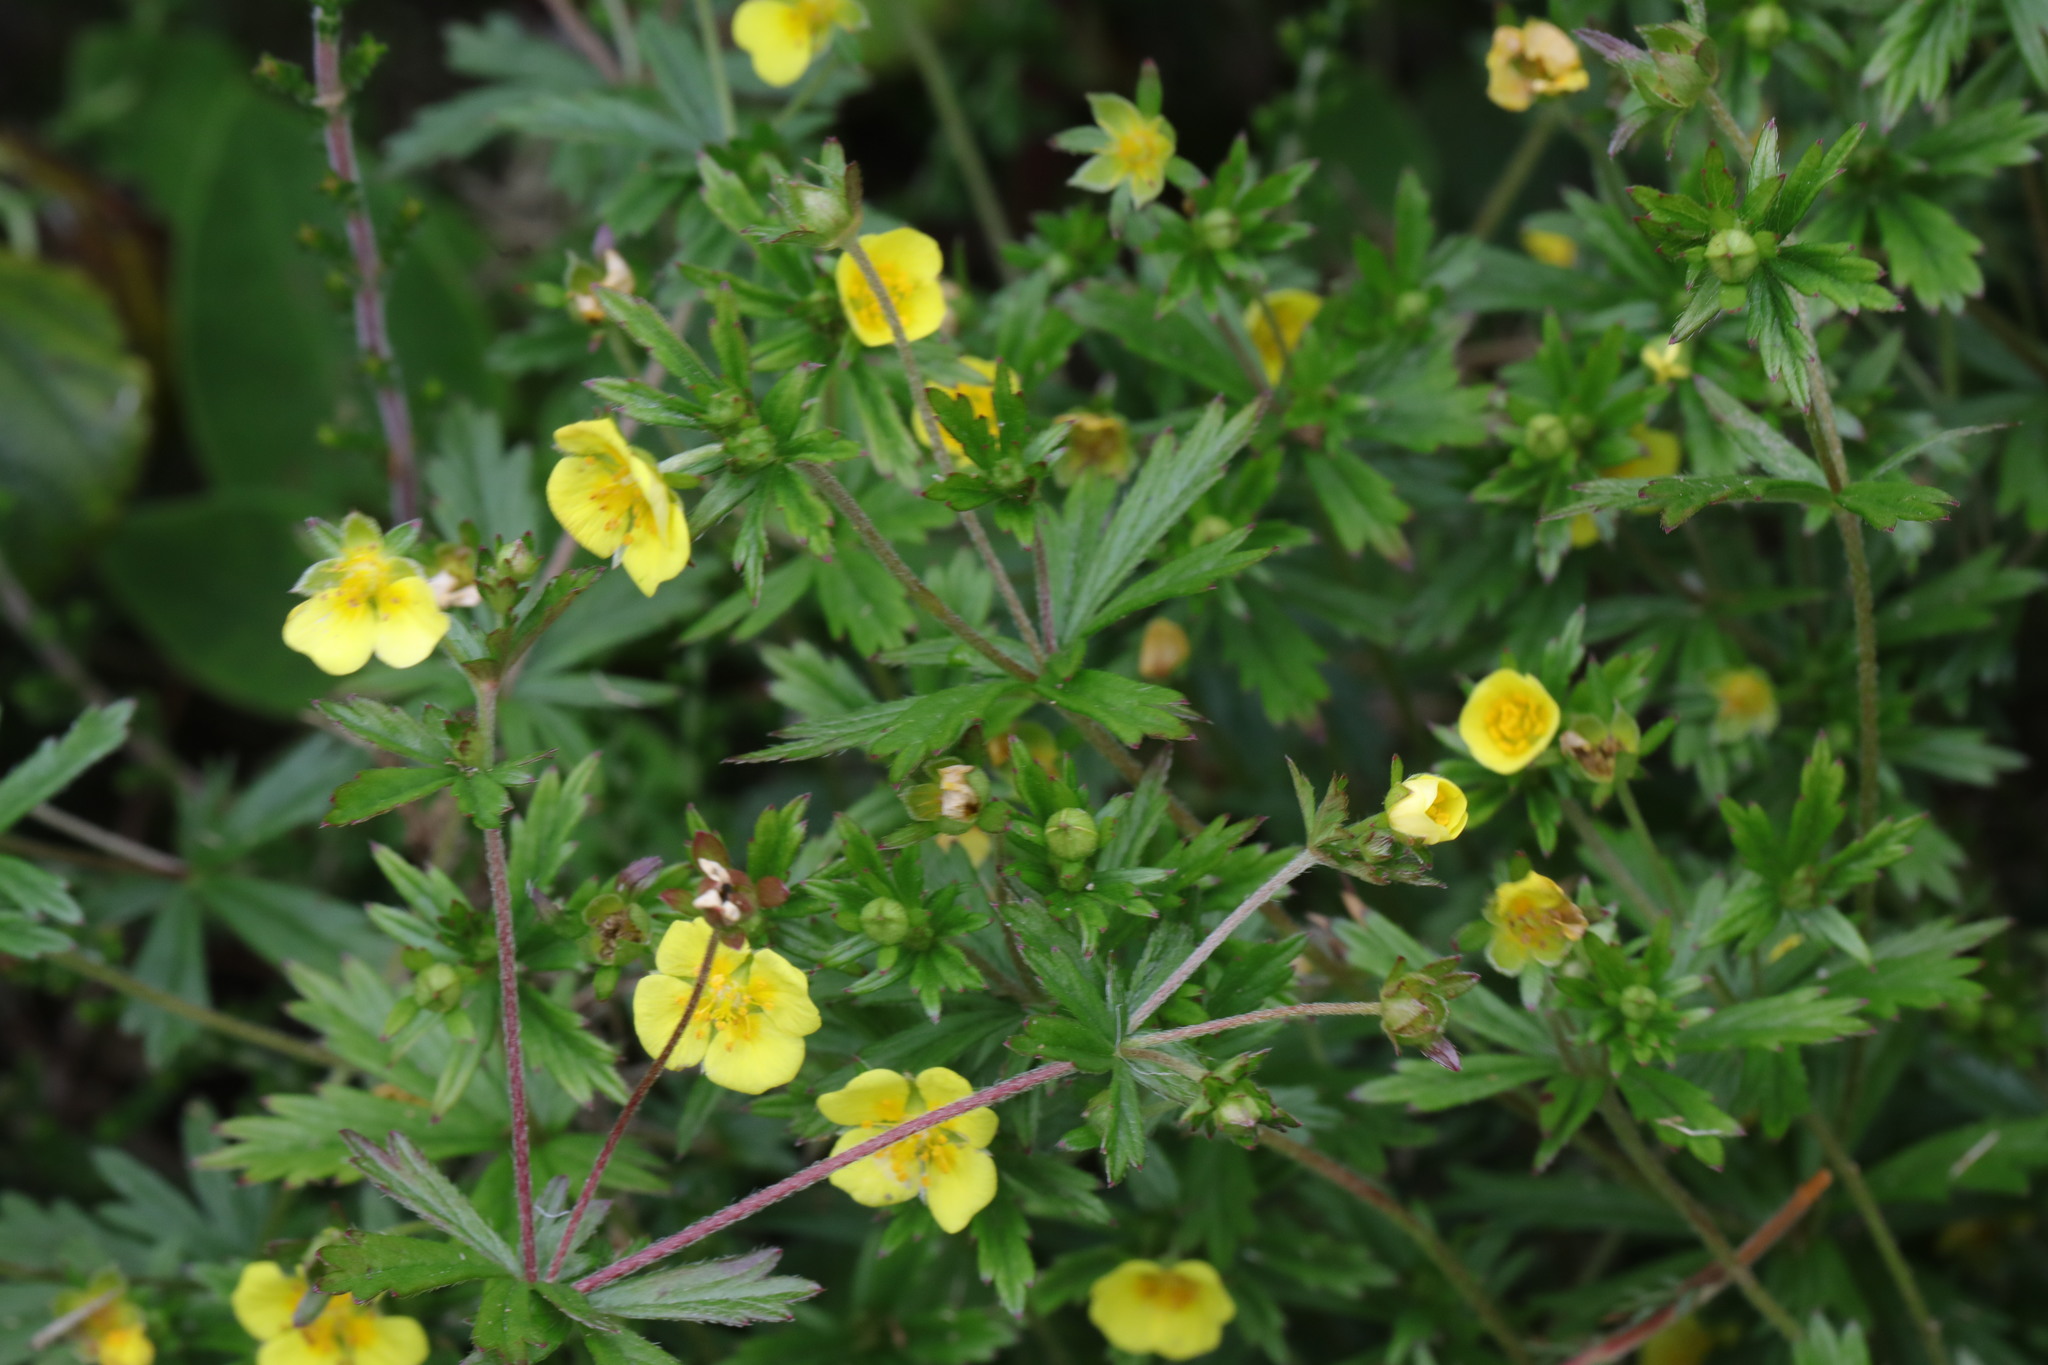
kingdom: Plantae
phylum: Tracheophyta
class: Magnoliopsida
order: Rosales
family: Rosaceae
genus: Potentilla
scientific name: Potentilla erecta
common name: Tormentil
